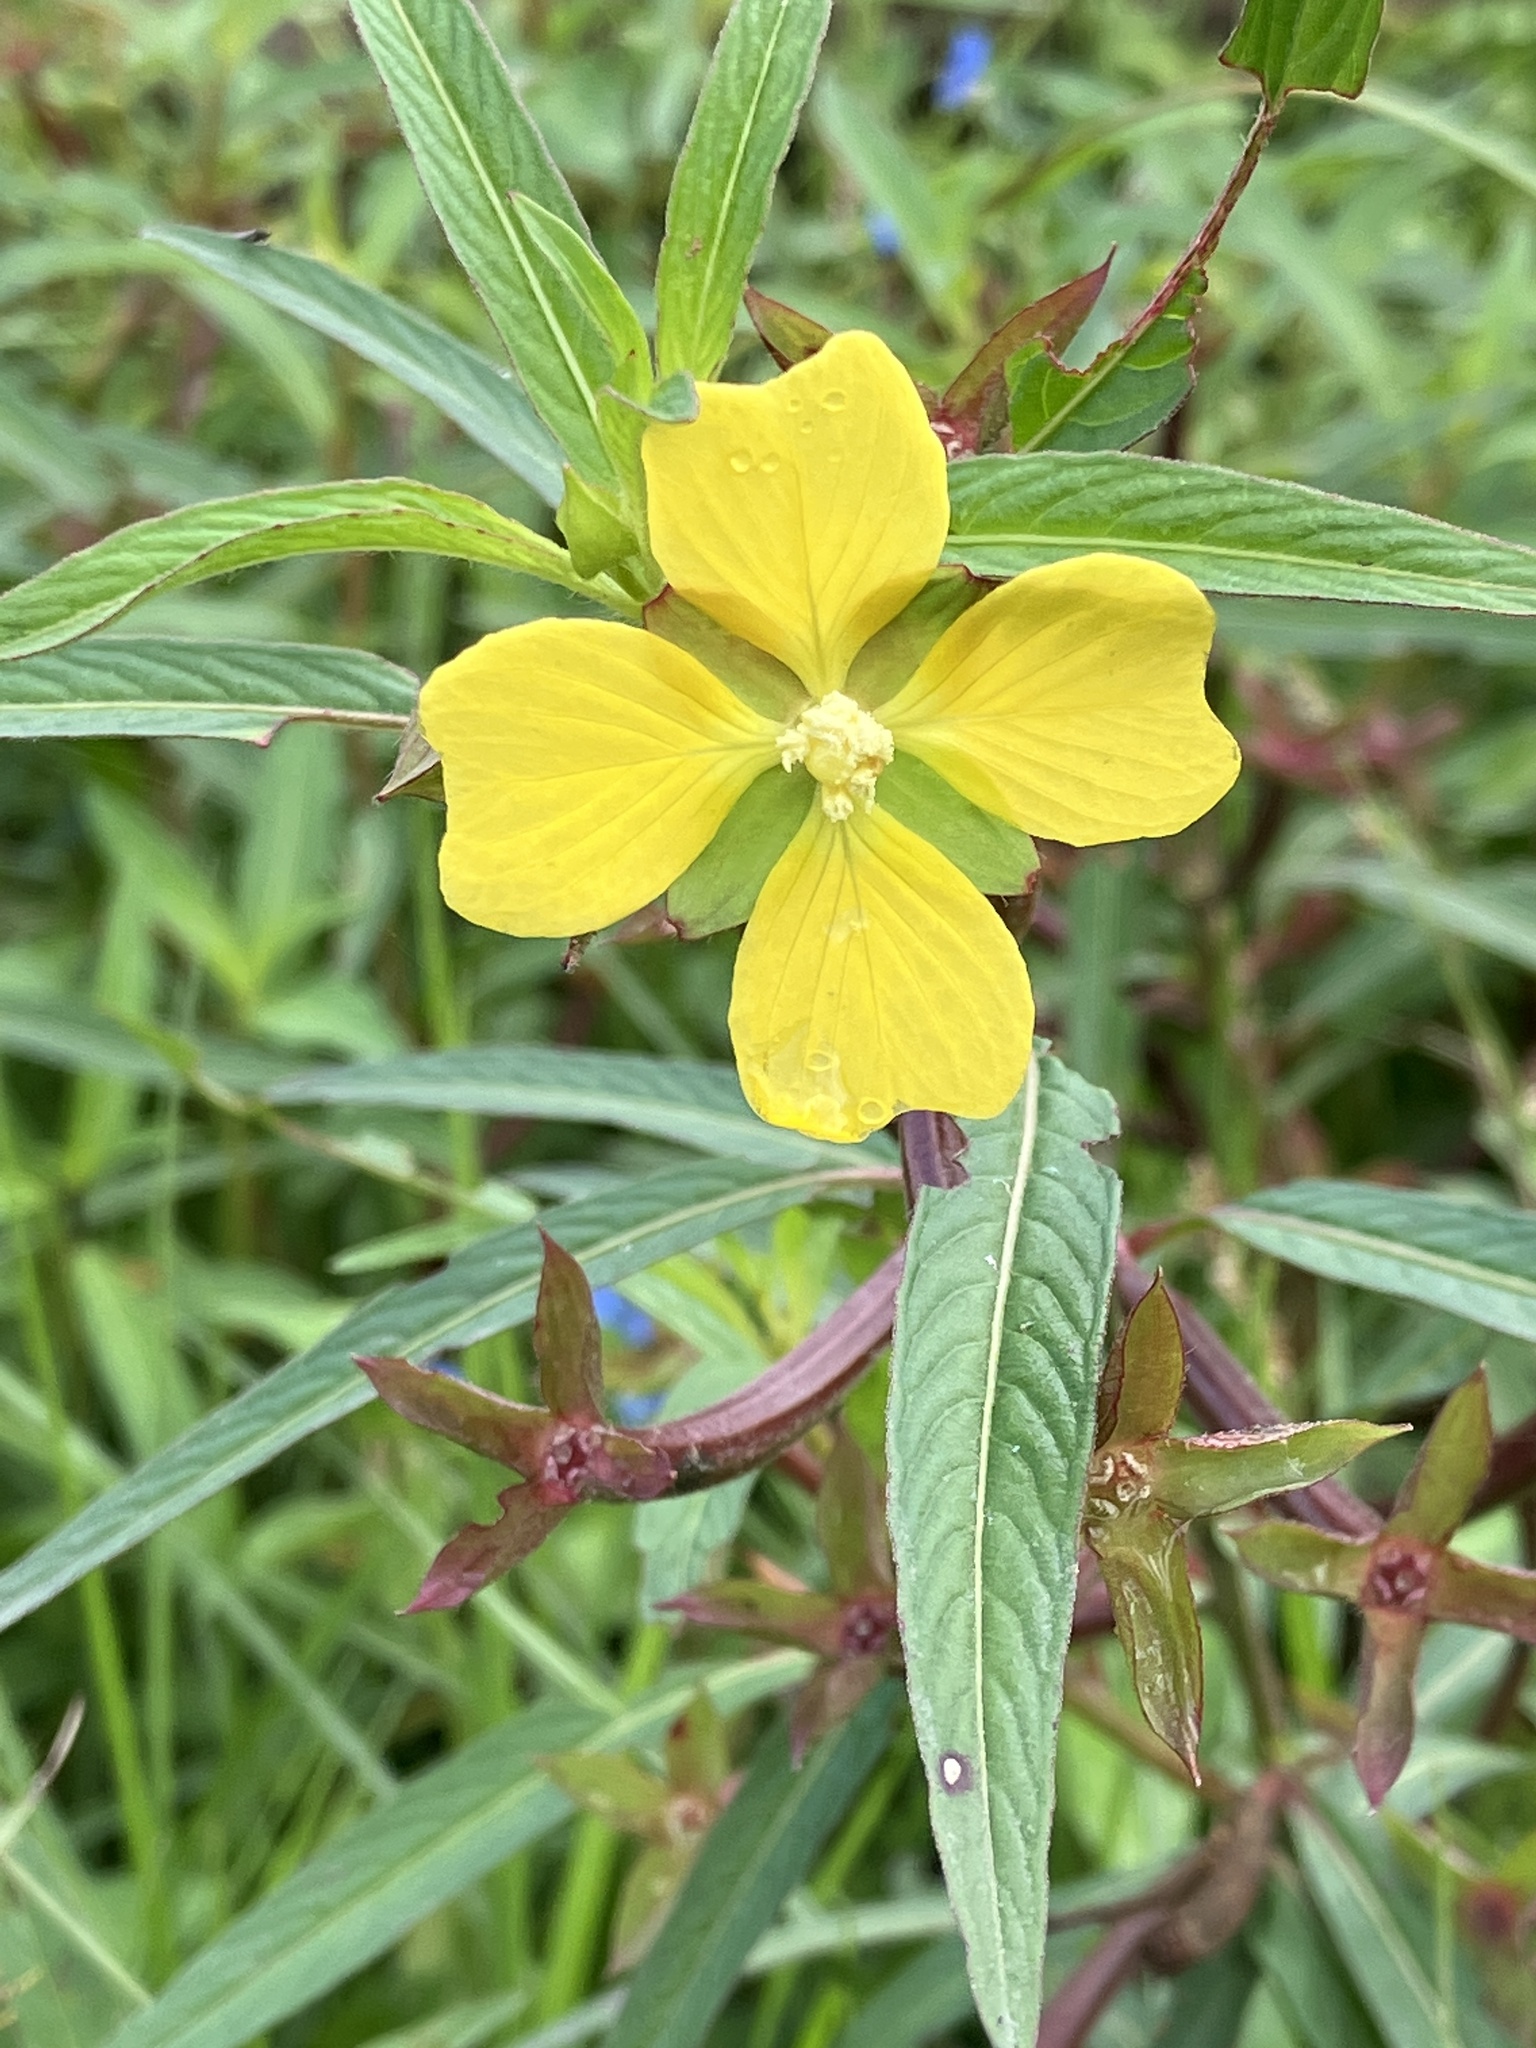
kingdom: Plantae
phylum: Tracheophyta
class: Magnoliopsida
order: Myrtales
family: Onagraceae
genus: Ludwigia
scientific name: Ludwigia octovalvis
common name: Water-primrose
